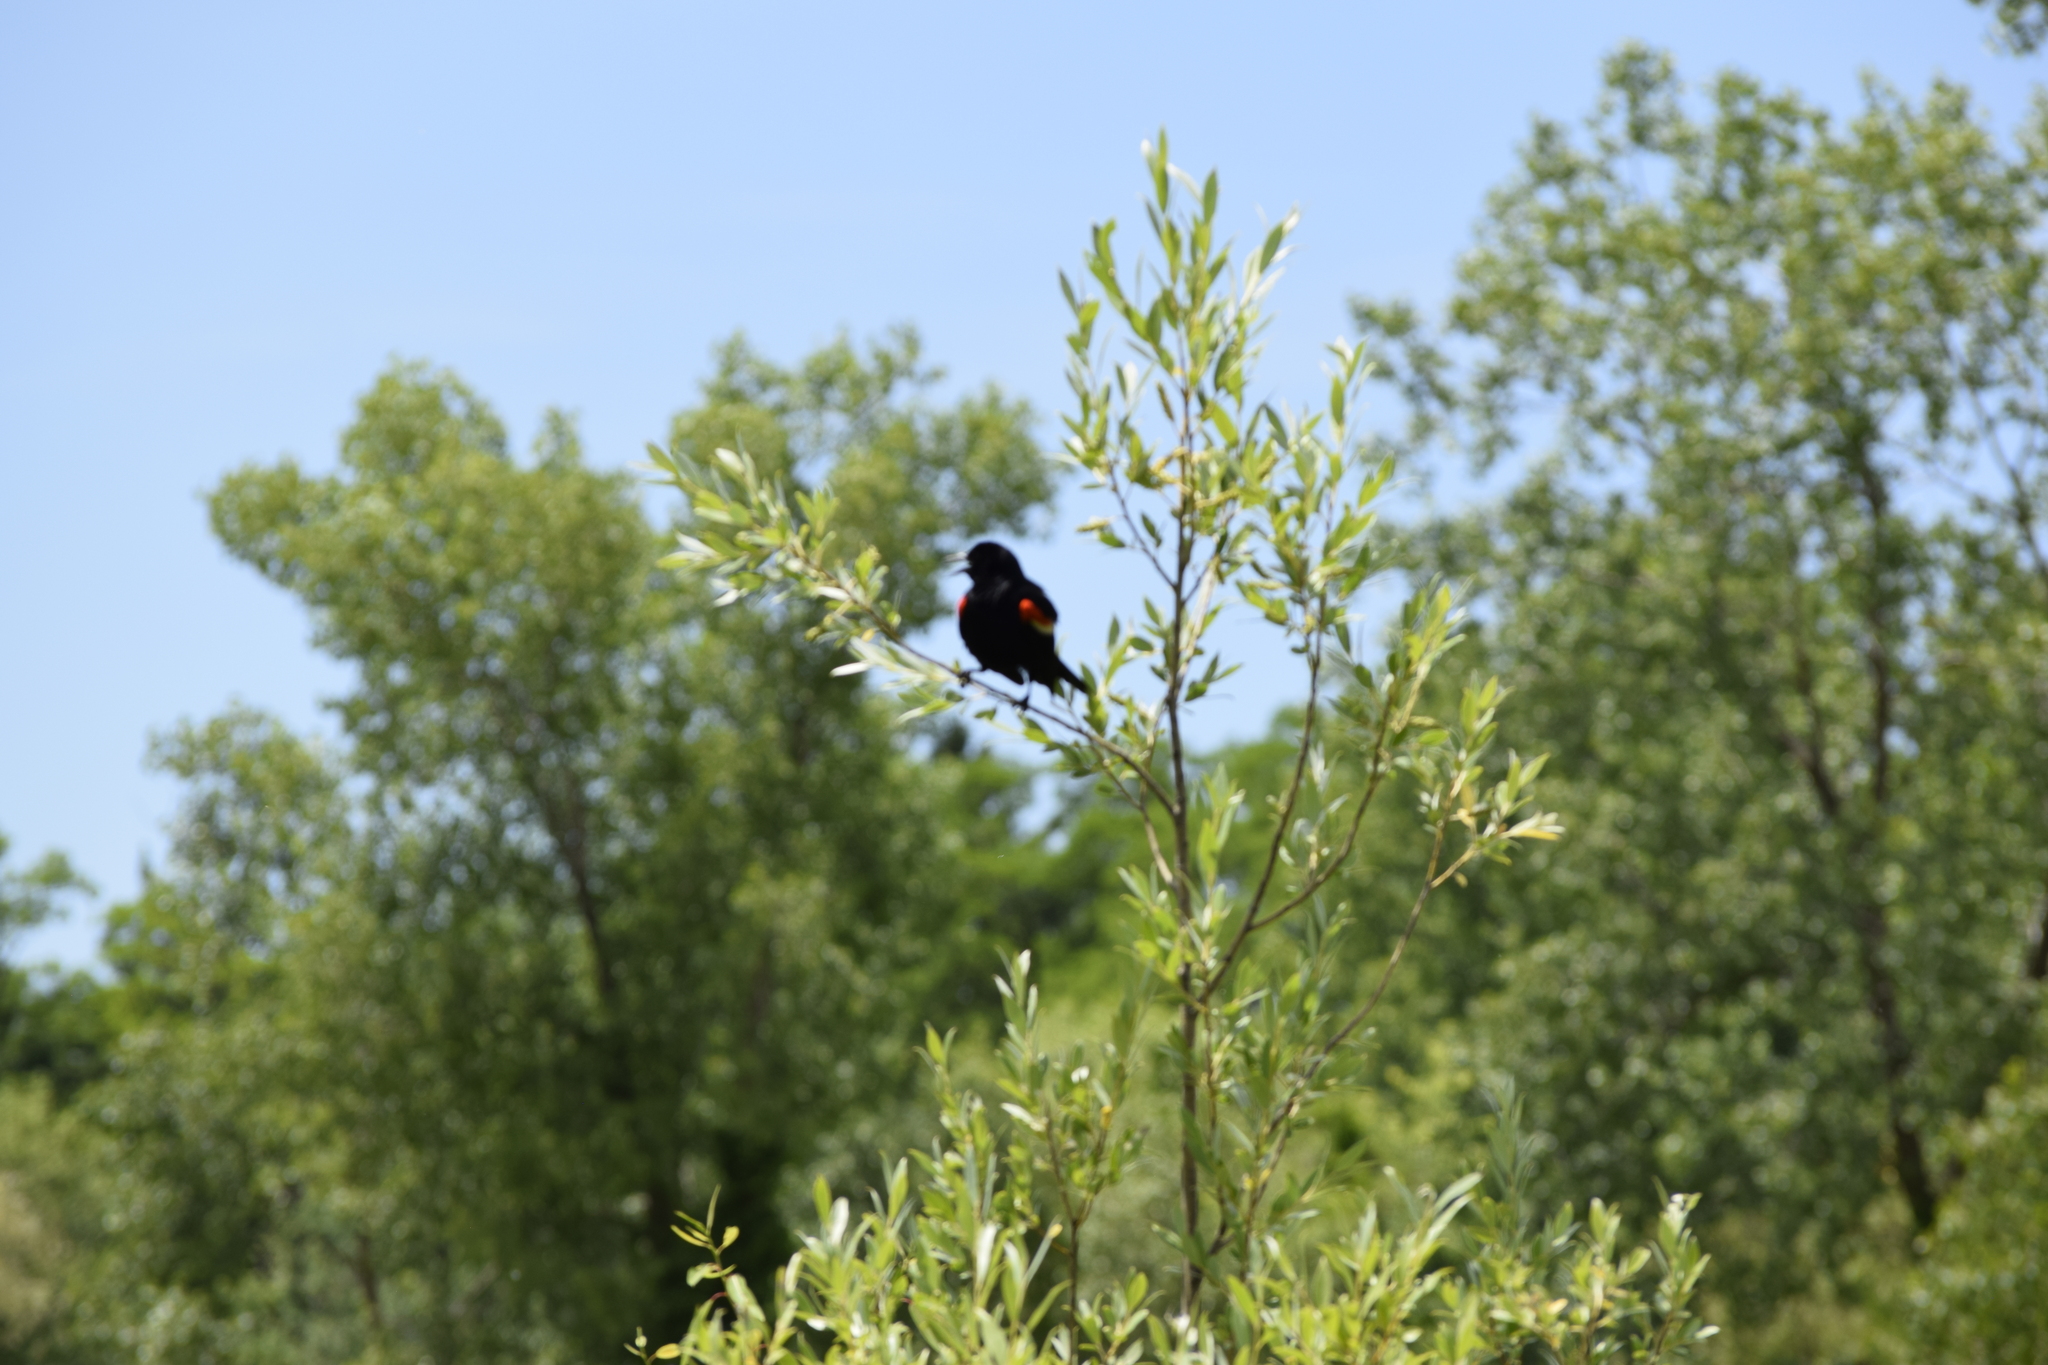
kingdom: Animalia
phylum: Chordata
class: Aves
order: Passeriformes
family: Icteridae
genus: Agelaius
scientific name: Agelaius phoeniceus
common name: Red-winged blackbird
